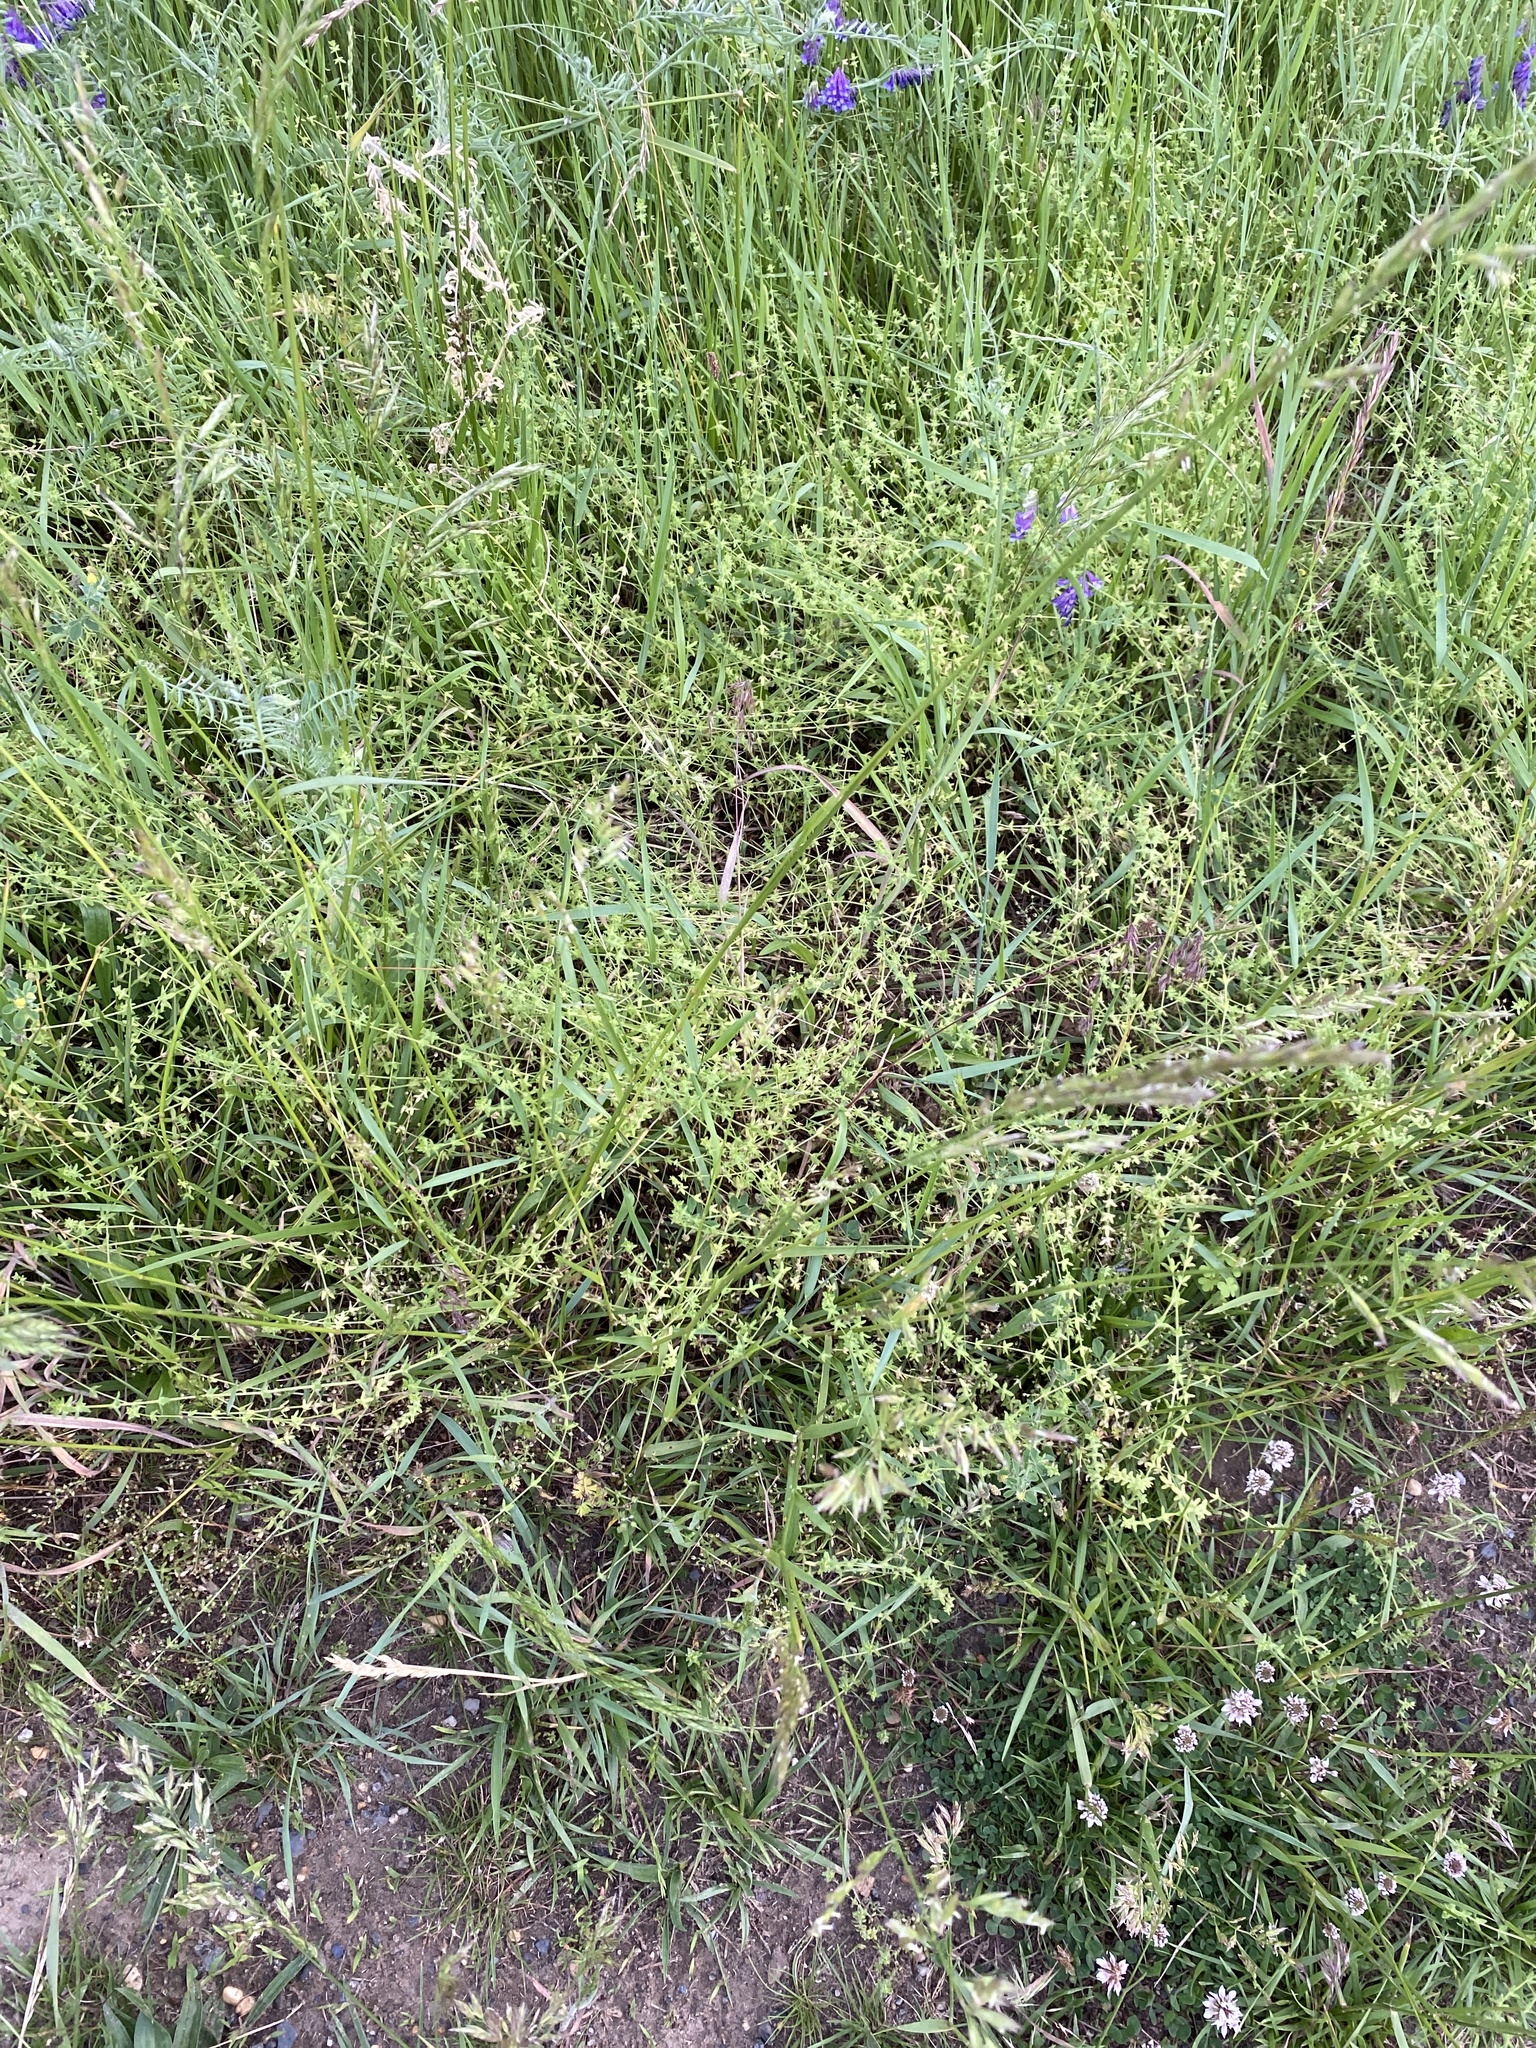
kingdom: Plantae
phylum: Tracheophyta
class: Magnoliopsida
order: Gentianales
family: Rubiaceae
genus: Cruciata
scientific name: Cruciata pedemontana
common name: Piedmont bedstraw
